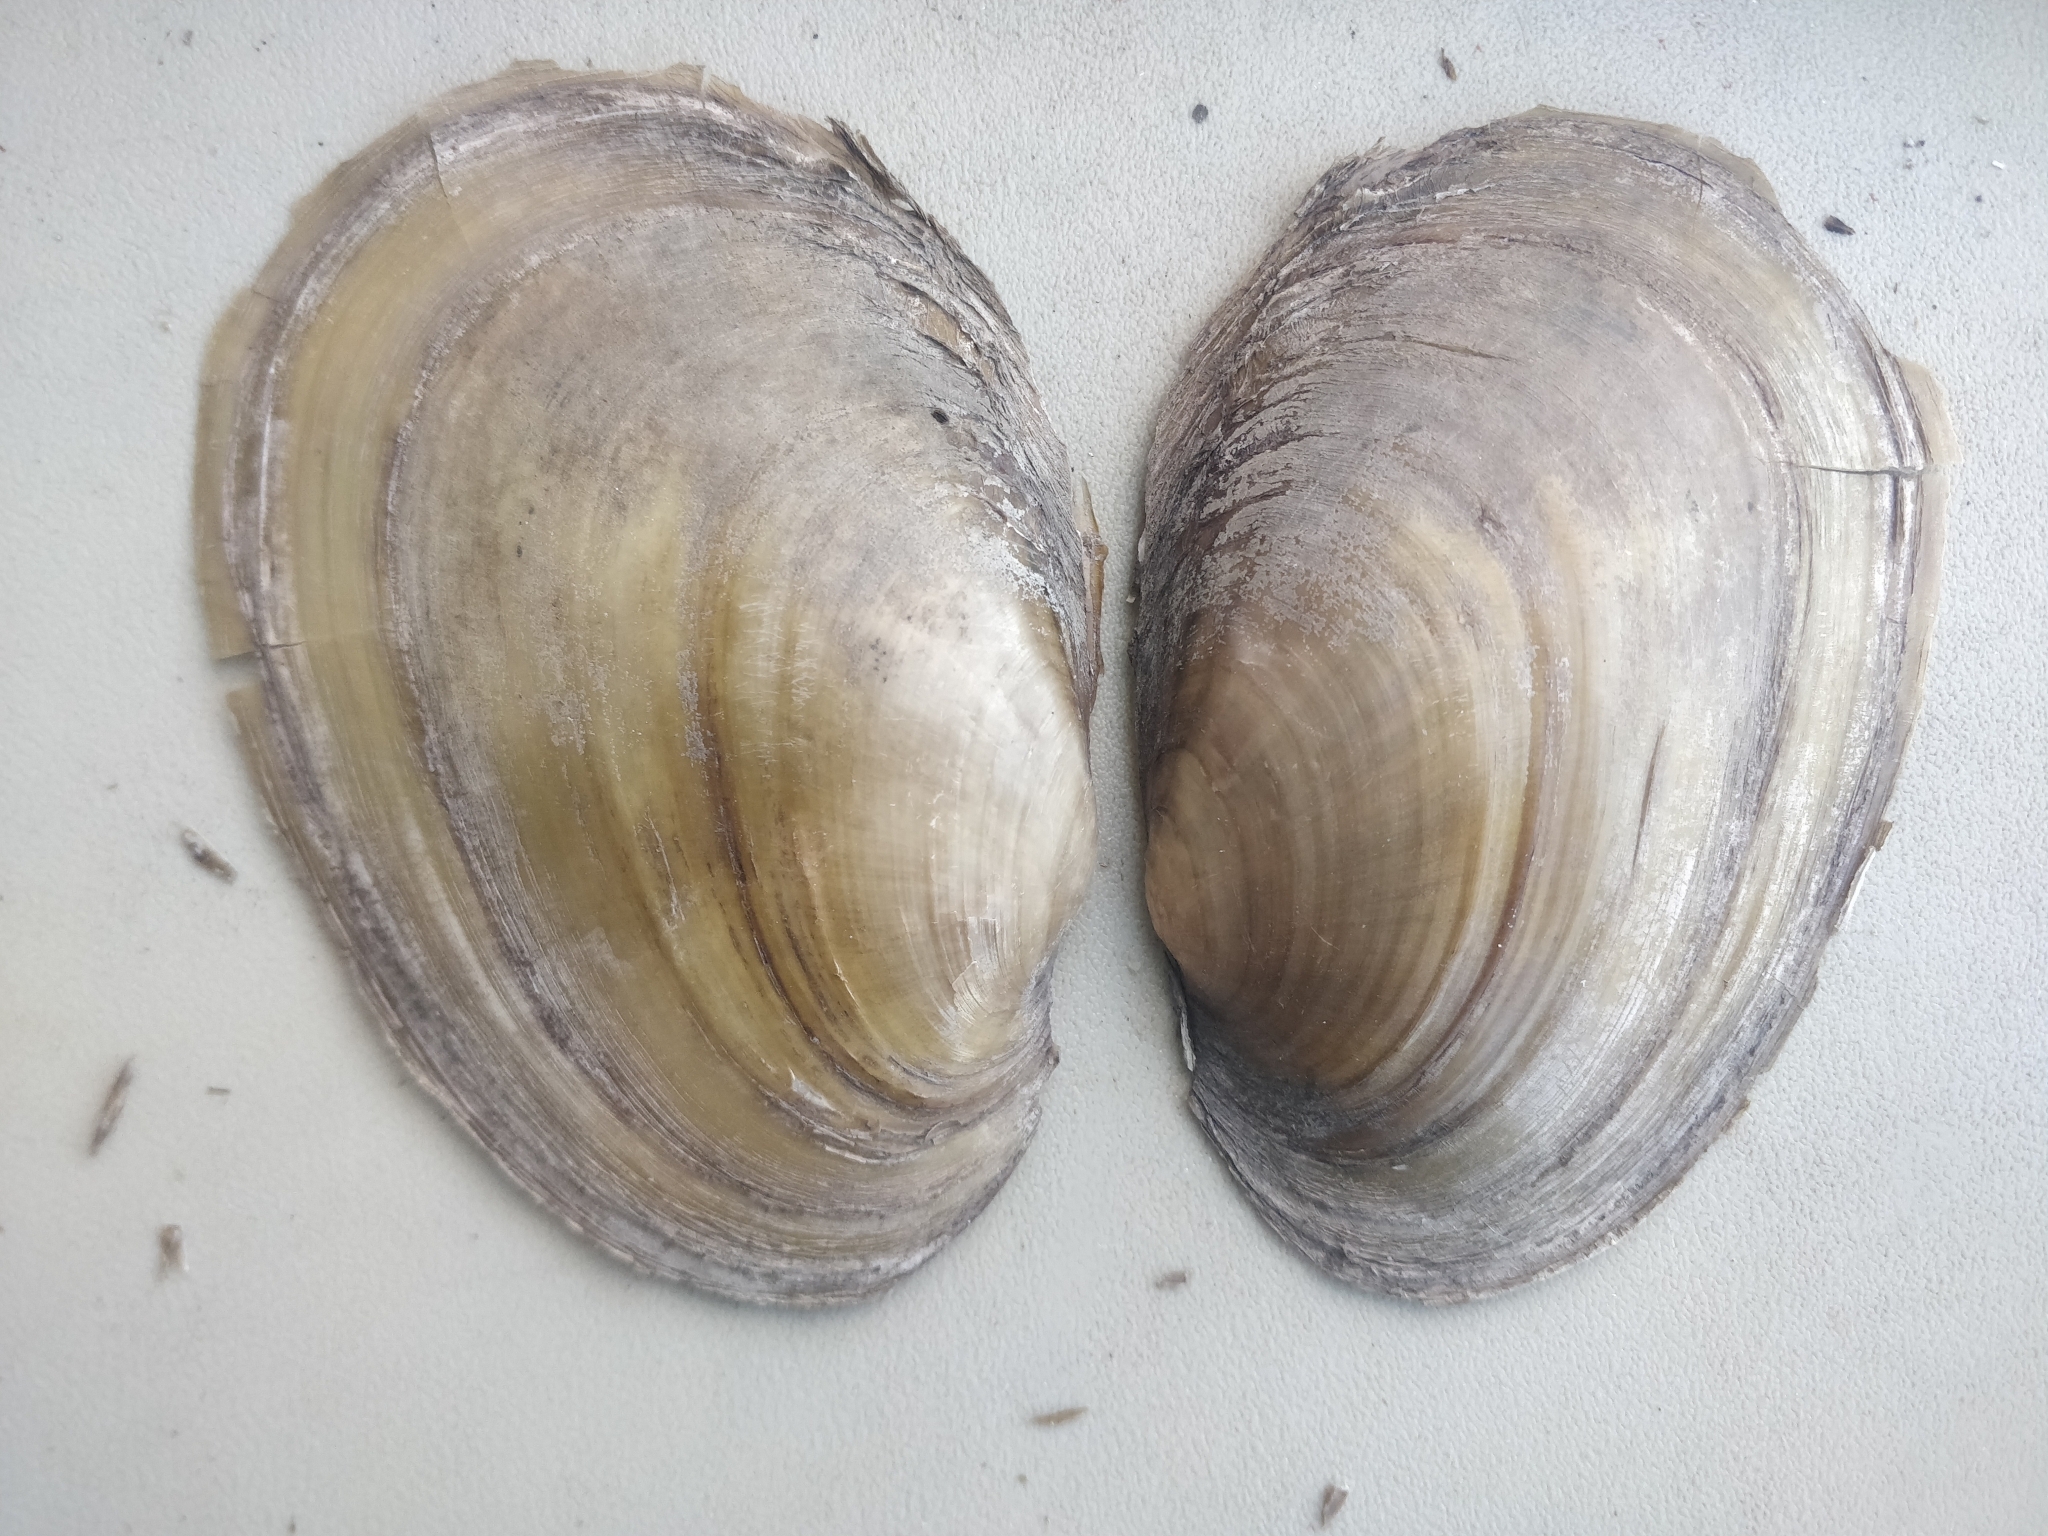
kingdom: Animalia
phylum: Mollusca
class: Bivalvia
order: Unionida
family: Unionidae
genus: Potamilus
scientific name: Potamilus fragilis
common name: Fragile papershell
